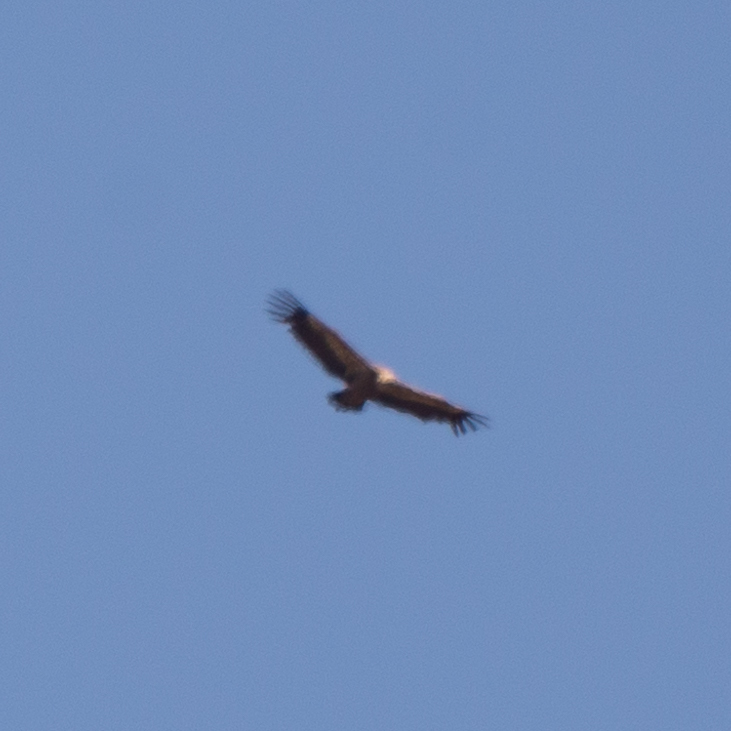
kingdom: Animalia
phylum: Chordata
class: Aves
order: Accipitriformes
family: Accipitridae
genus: Gyps
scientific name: Gyps fulvus
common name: Griffon vulture
